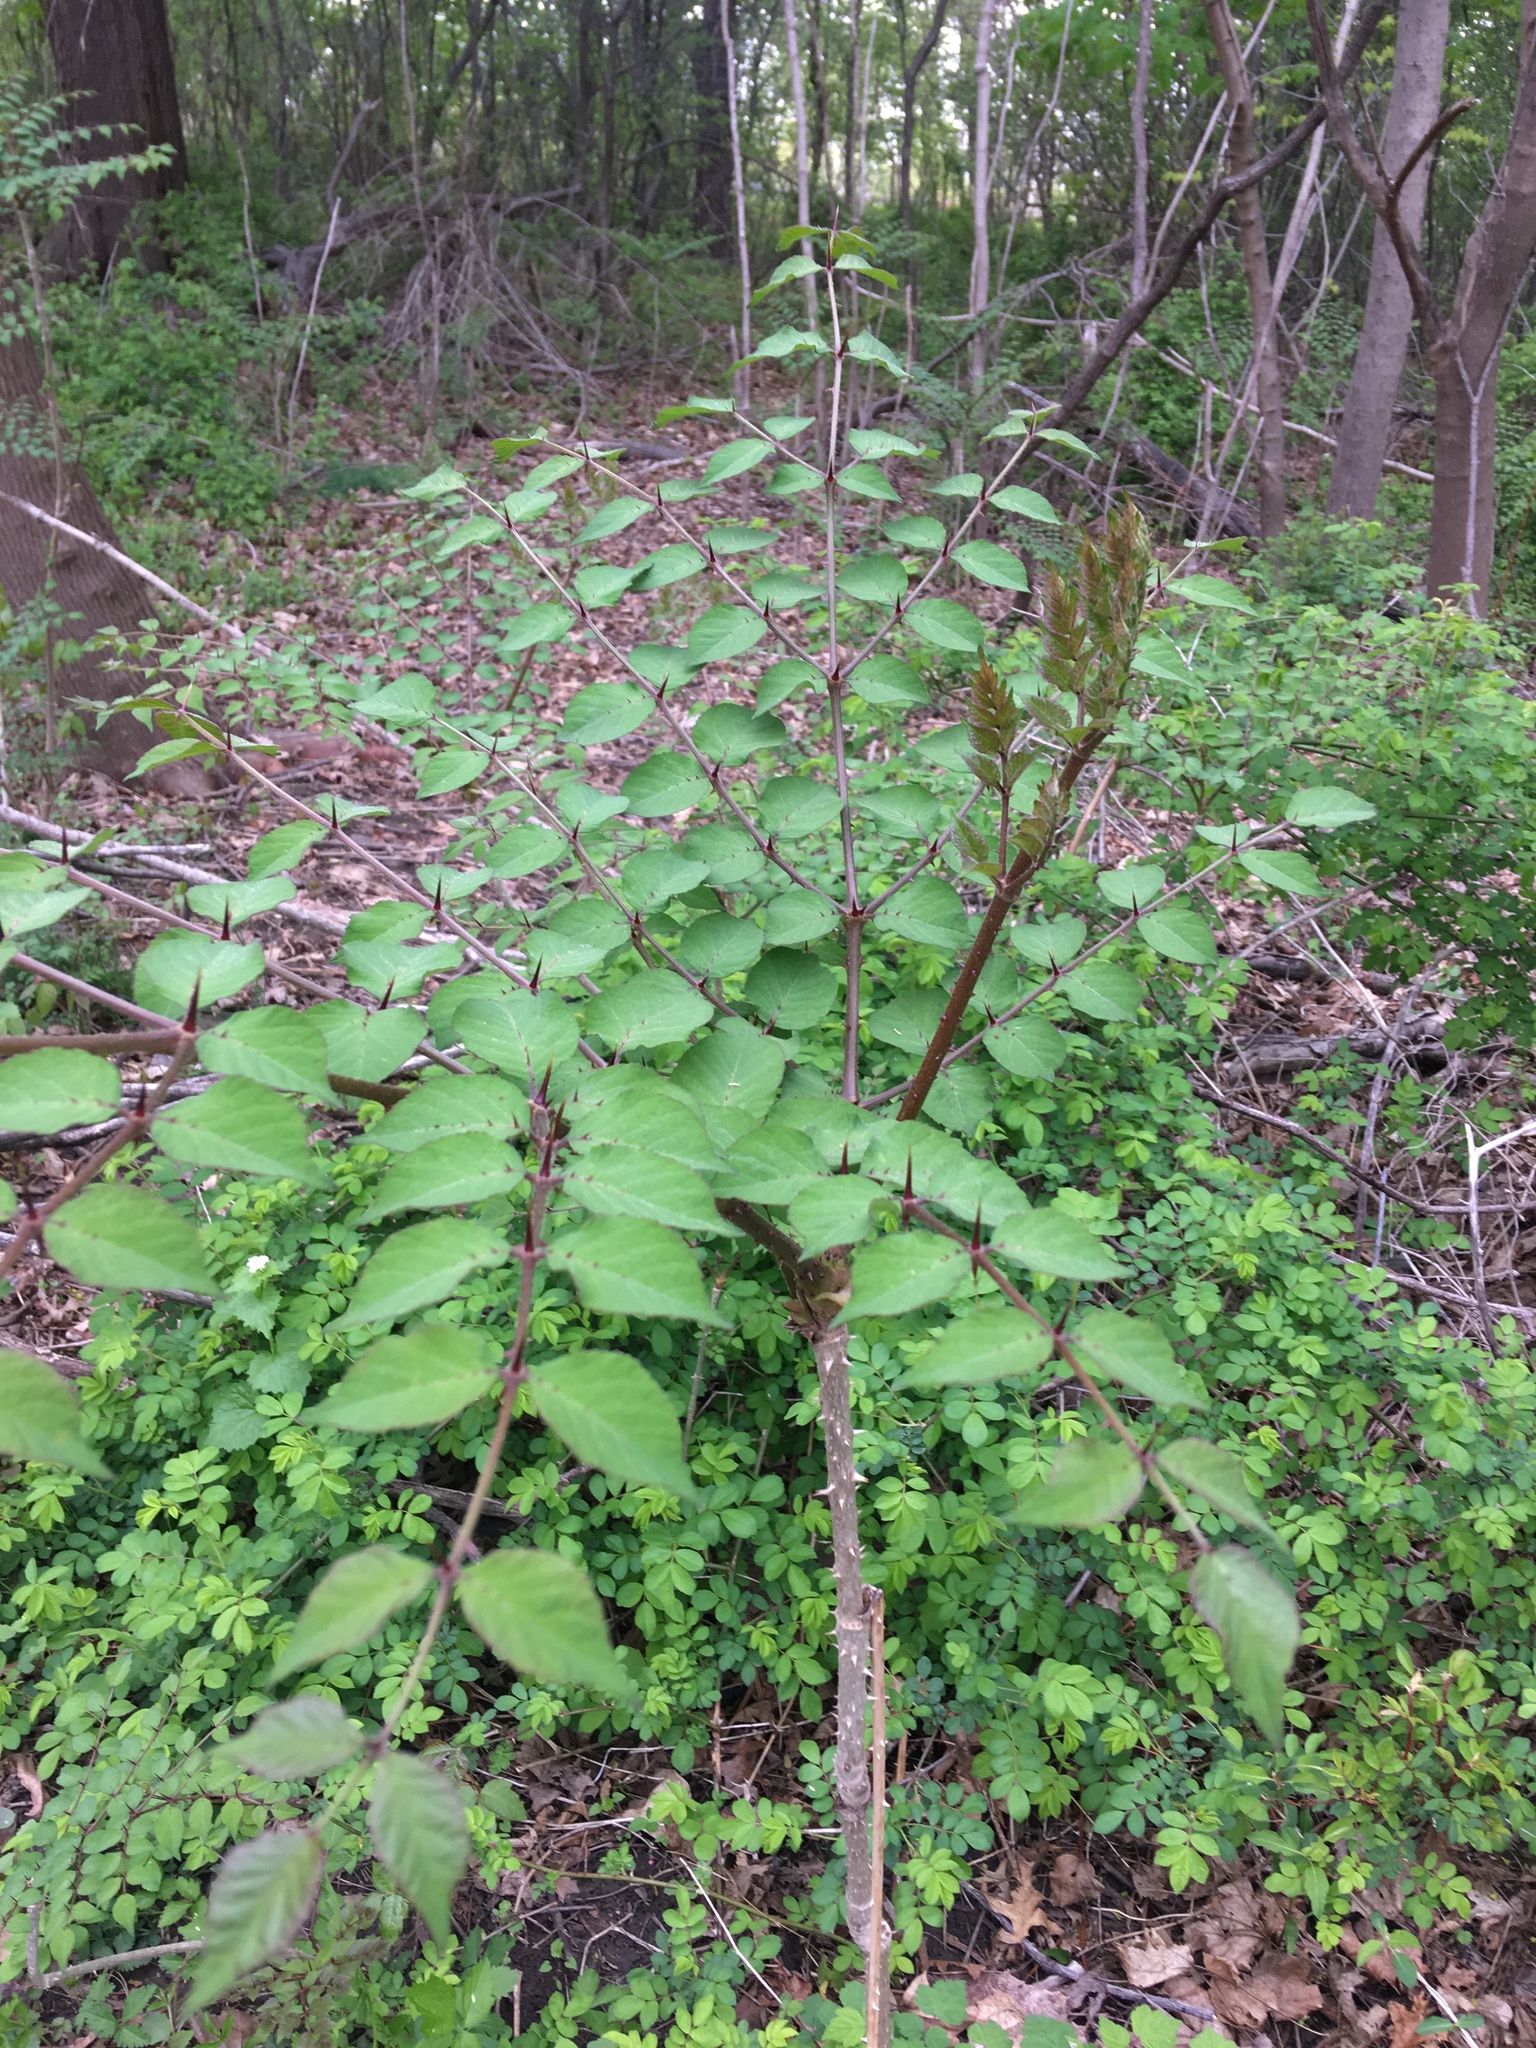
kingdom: Plantae
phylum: Tracheophyta
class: Magnoliopsida
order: Apiales
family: Araliaceae
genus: Aralia
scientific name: Aralia elata
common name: Japanese angelica-tree
